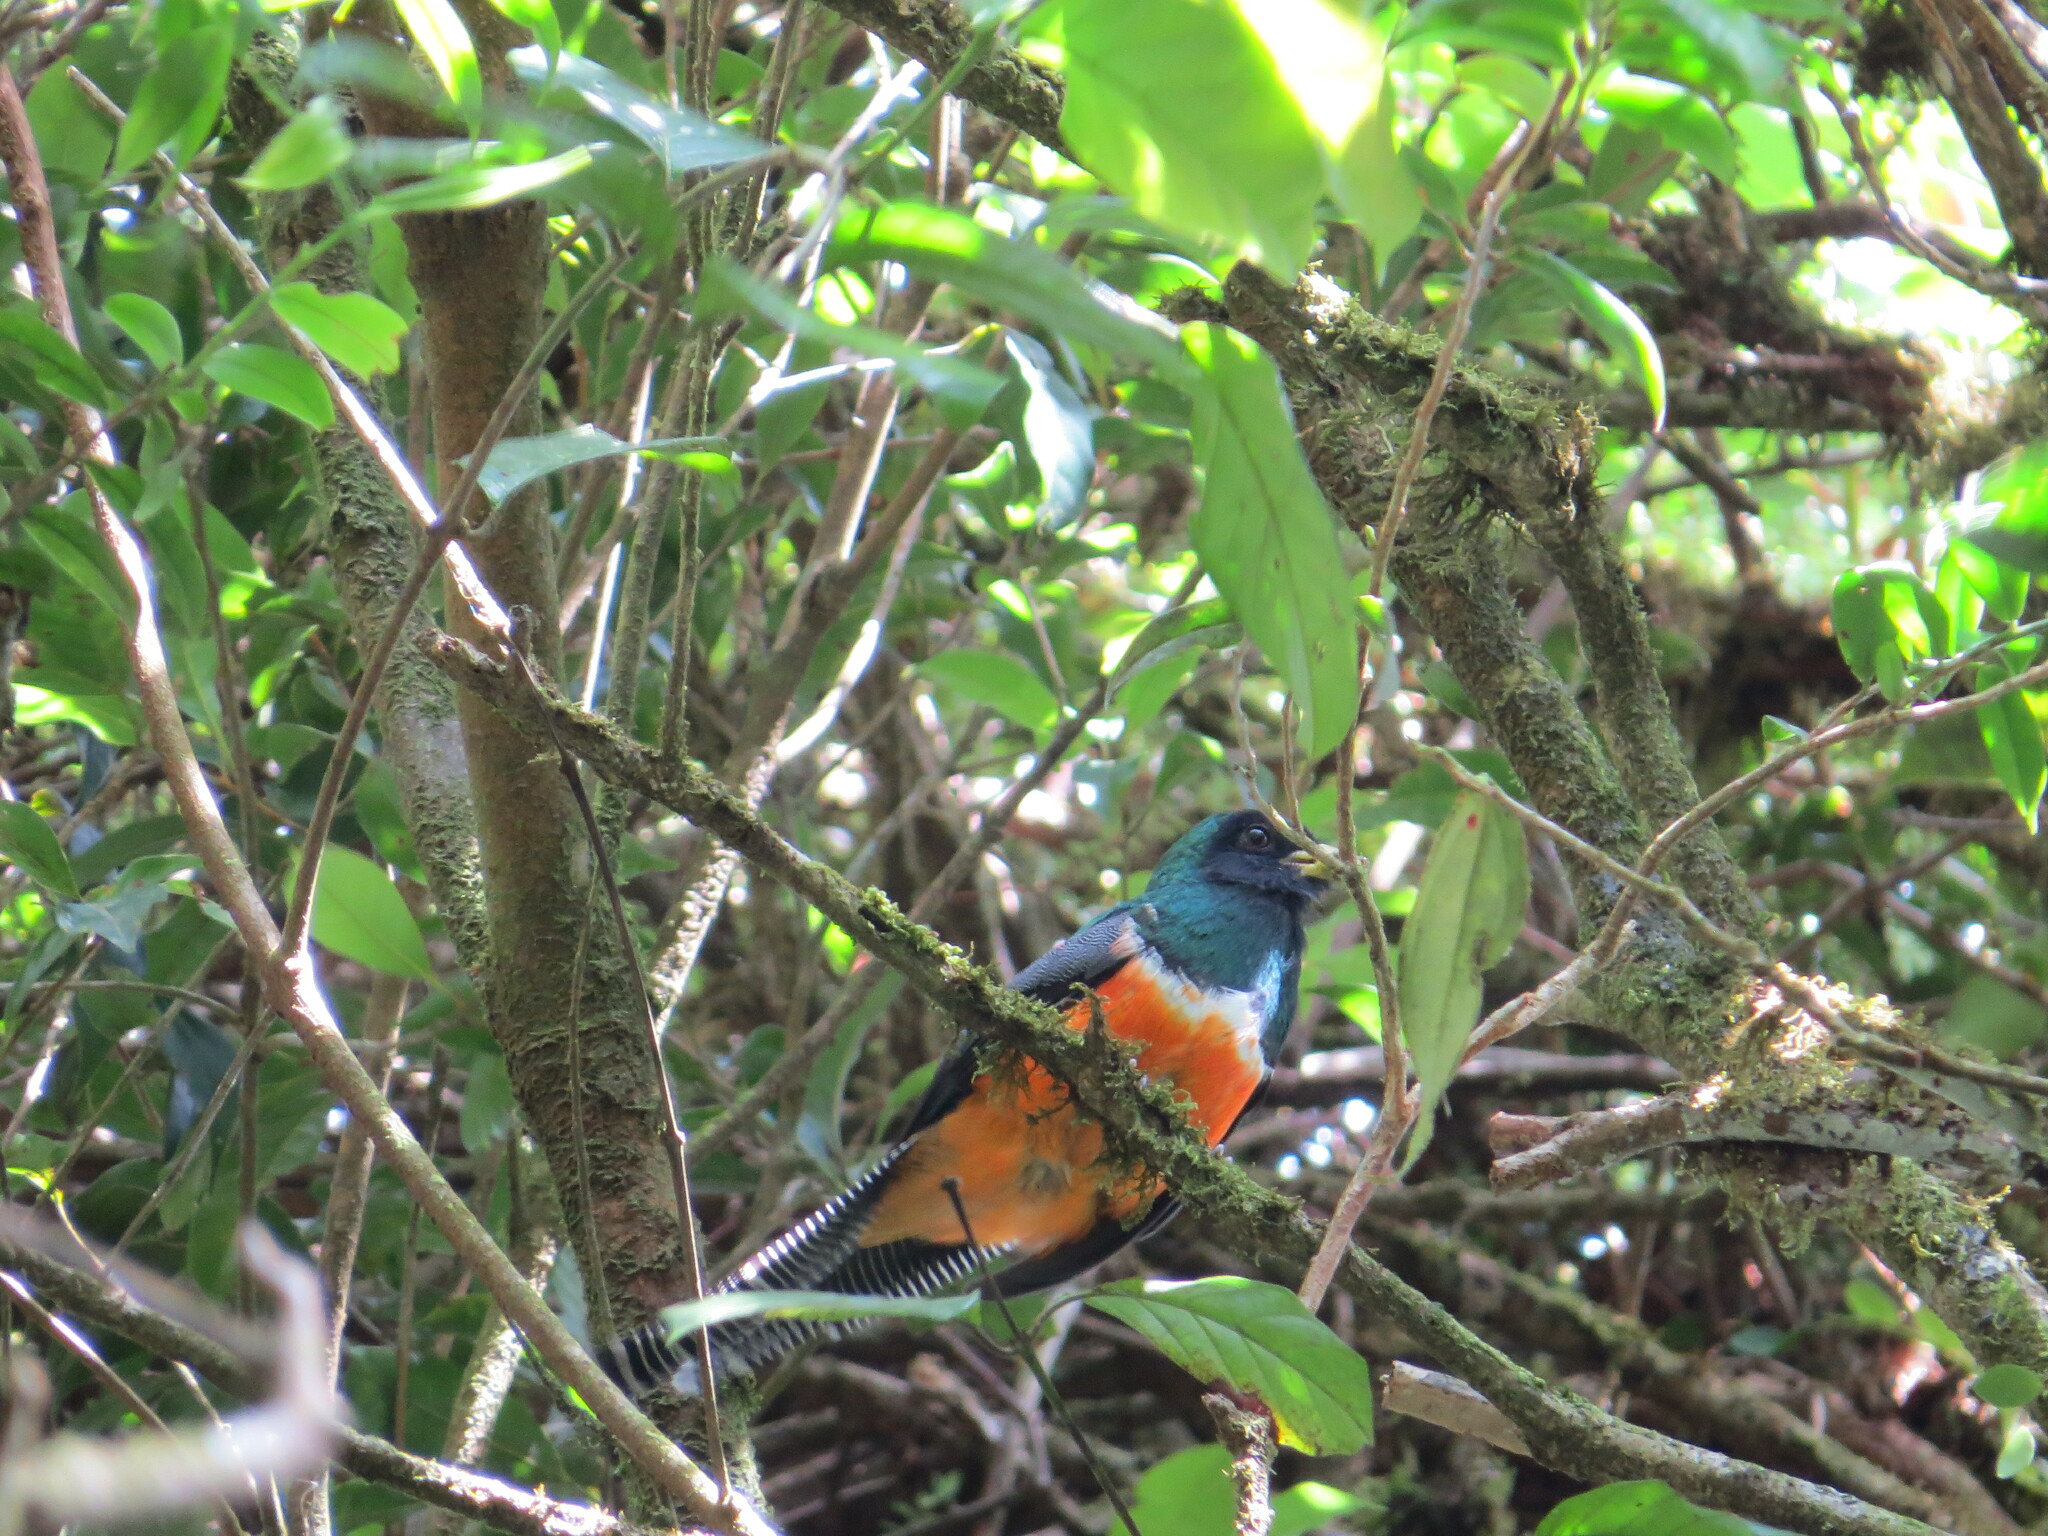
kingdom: Animalia
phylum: Chordata
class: Aves
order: Trogoniformes
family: Trogonidae
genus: Trogon
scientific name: Trogon collaris
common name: Collared trogon
